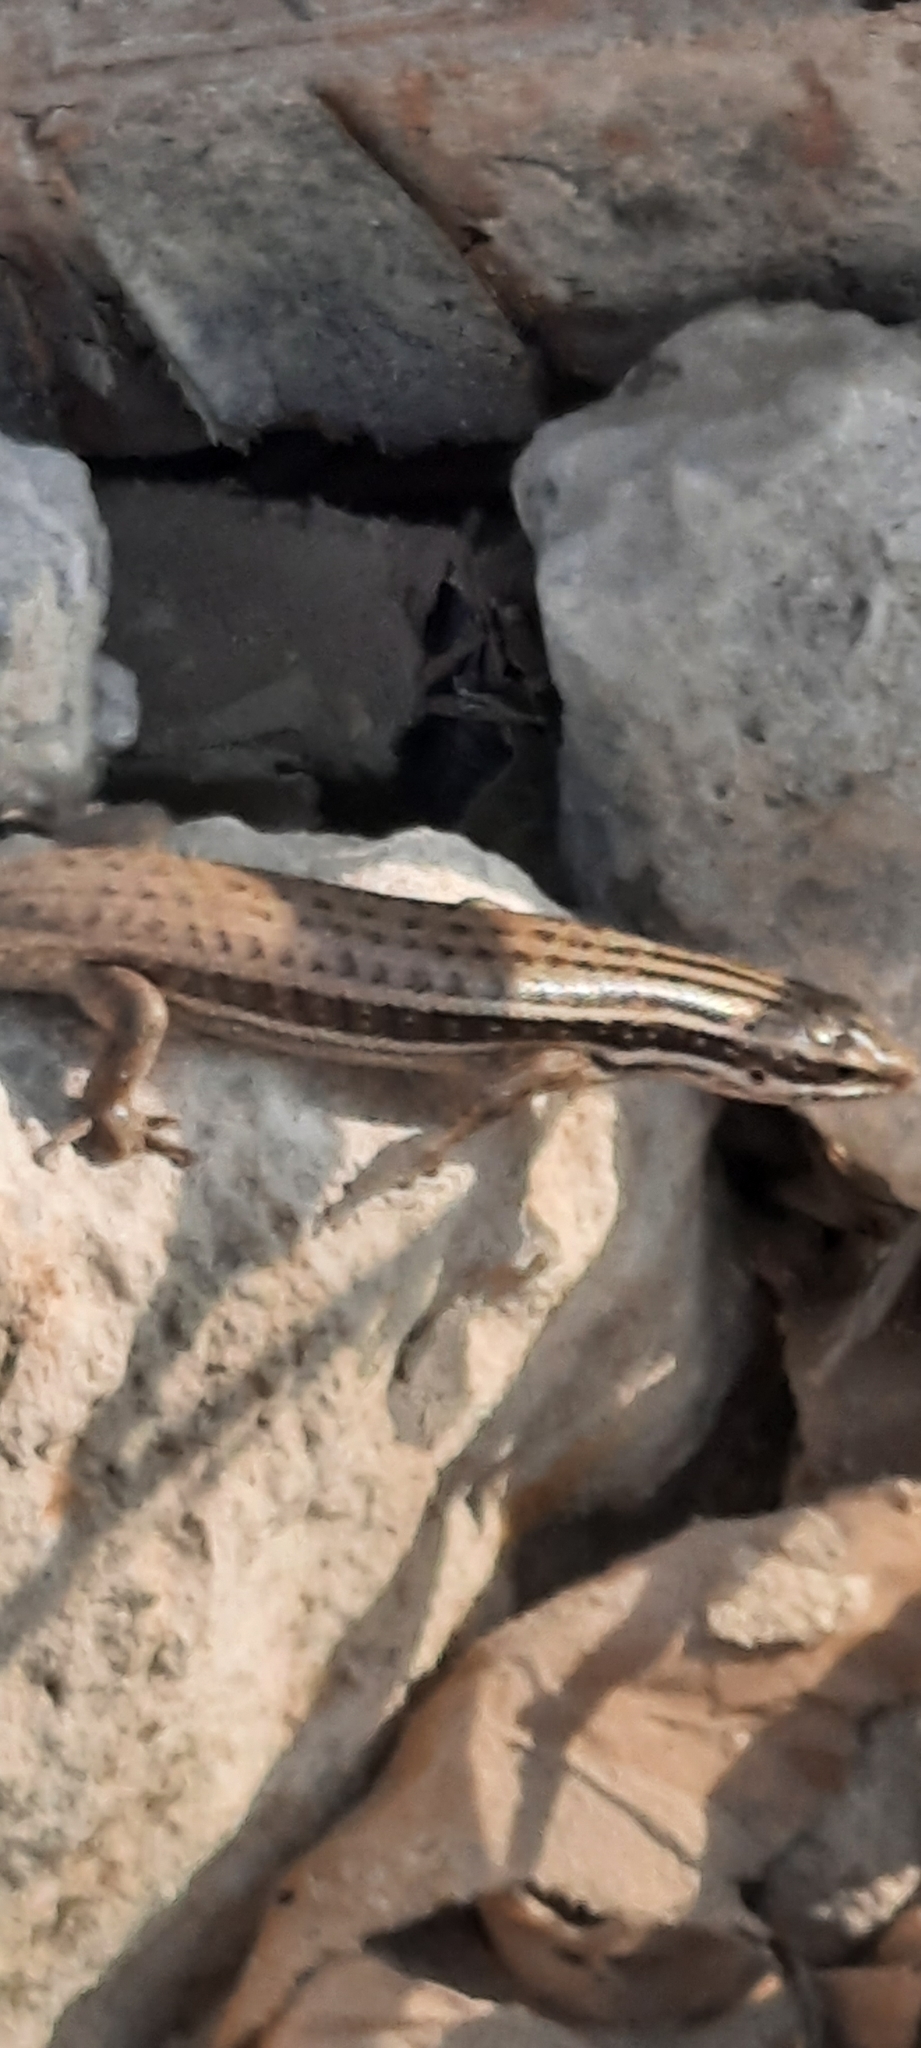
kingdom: Animalia
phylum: Chordata
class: Squamata
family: Scincidae
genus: Heremites
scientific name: Heremites septemtaeniatus
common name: Golden grass mabuya
